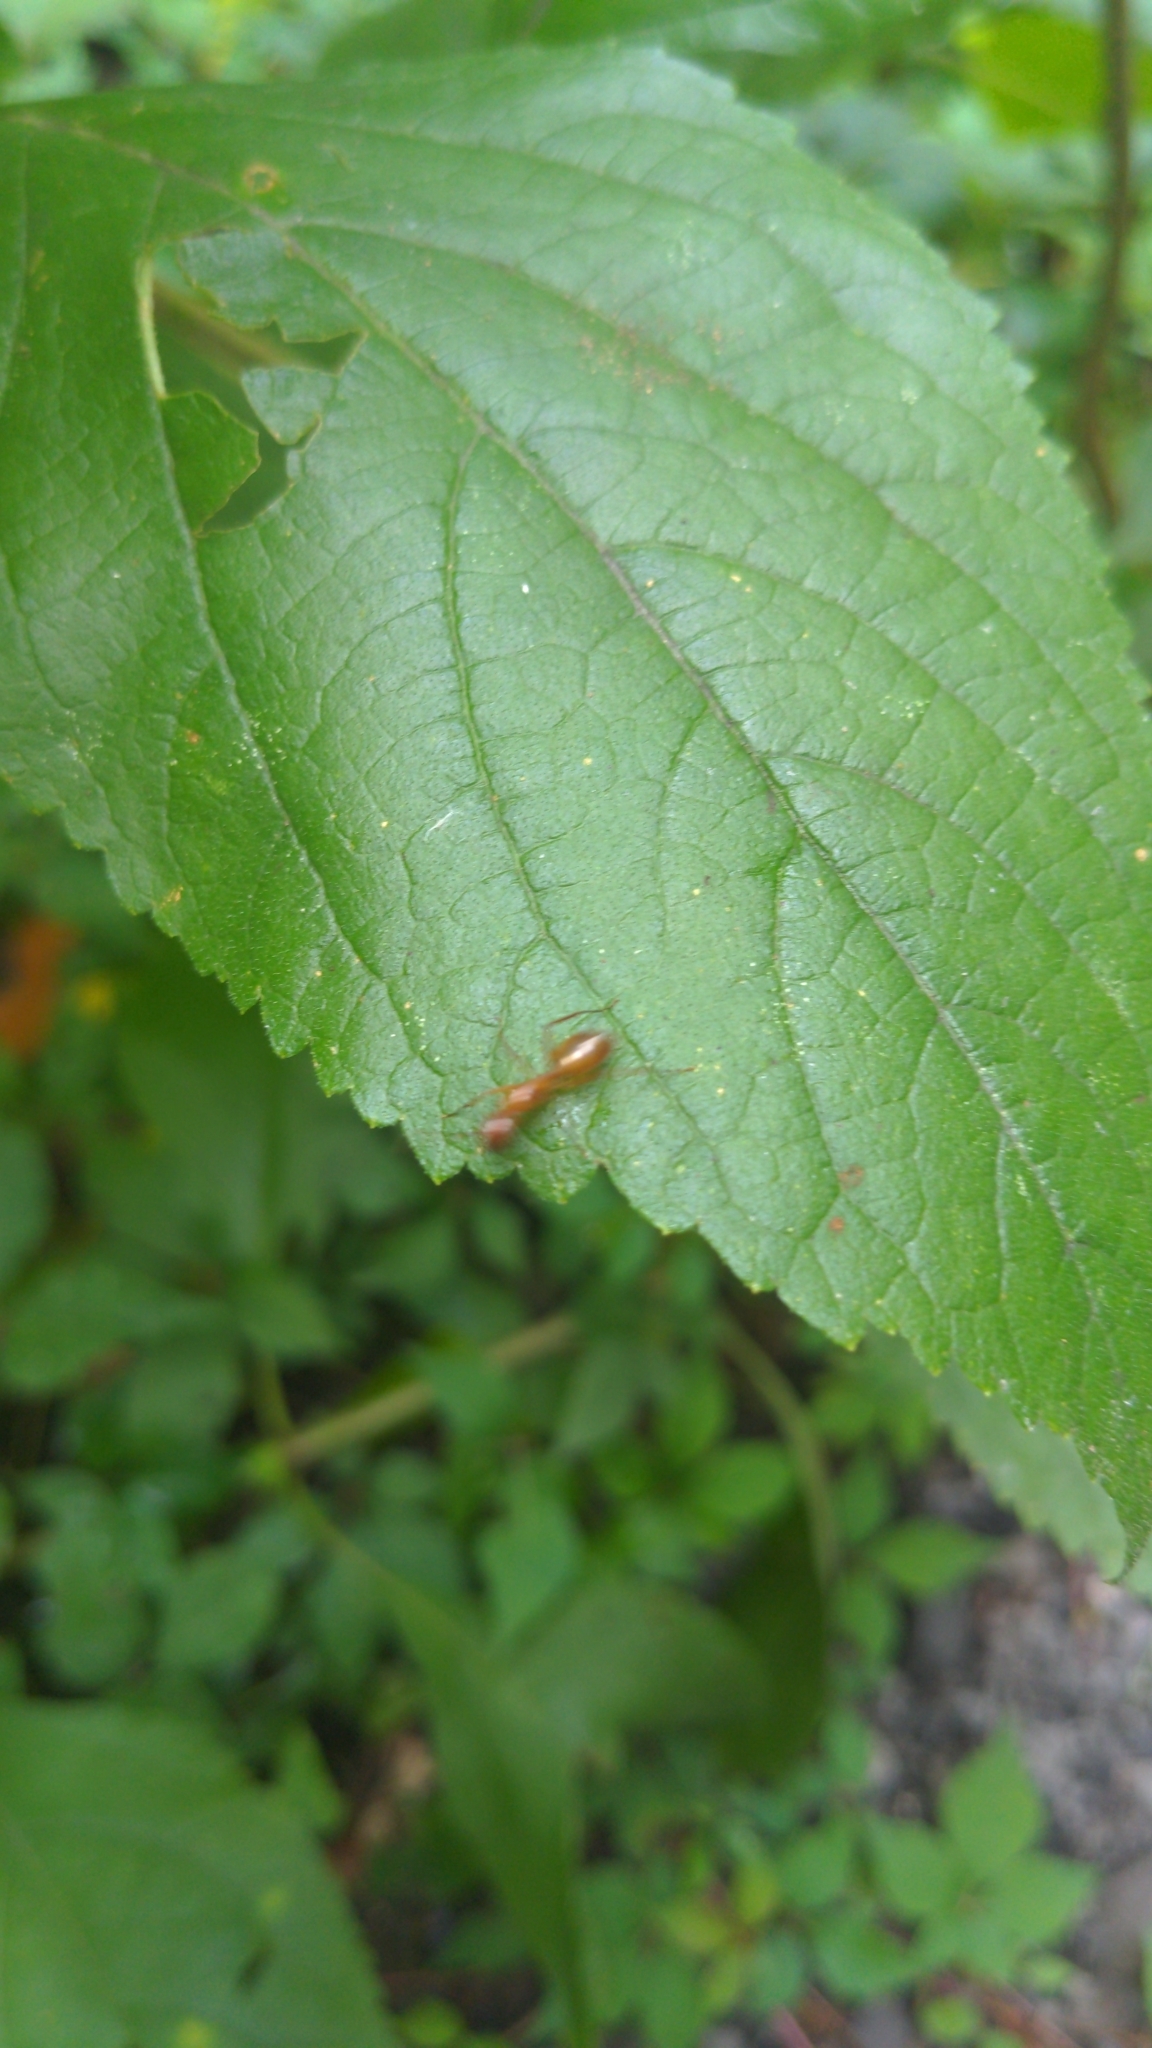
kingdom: Animalia
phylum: Arthropoda
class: Insecta
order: Hymenoptera
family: Formicidae
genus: Camponotus
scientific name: Camponotus castaneus
